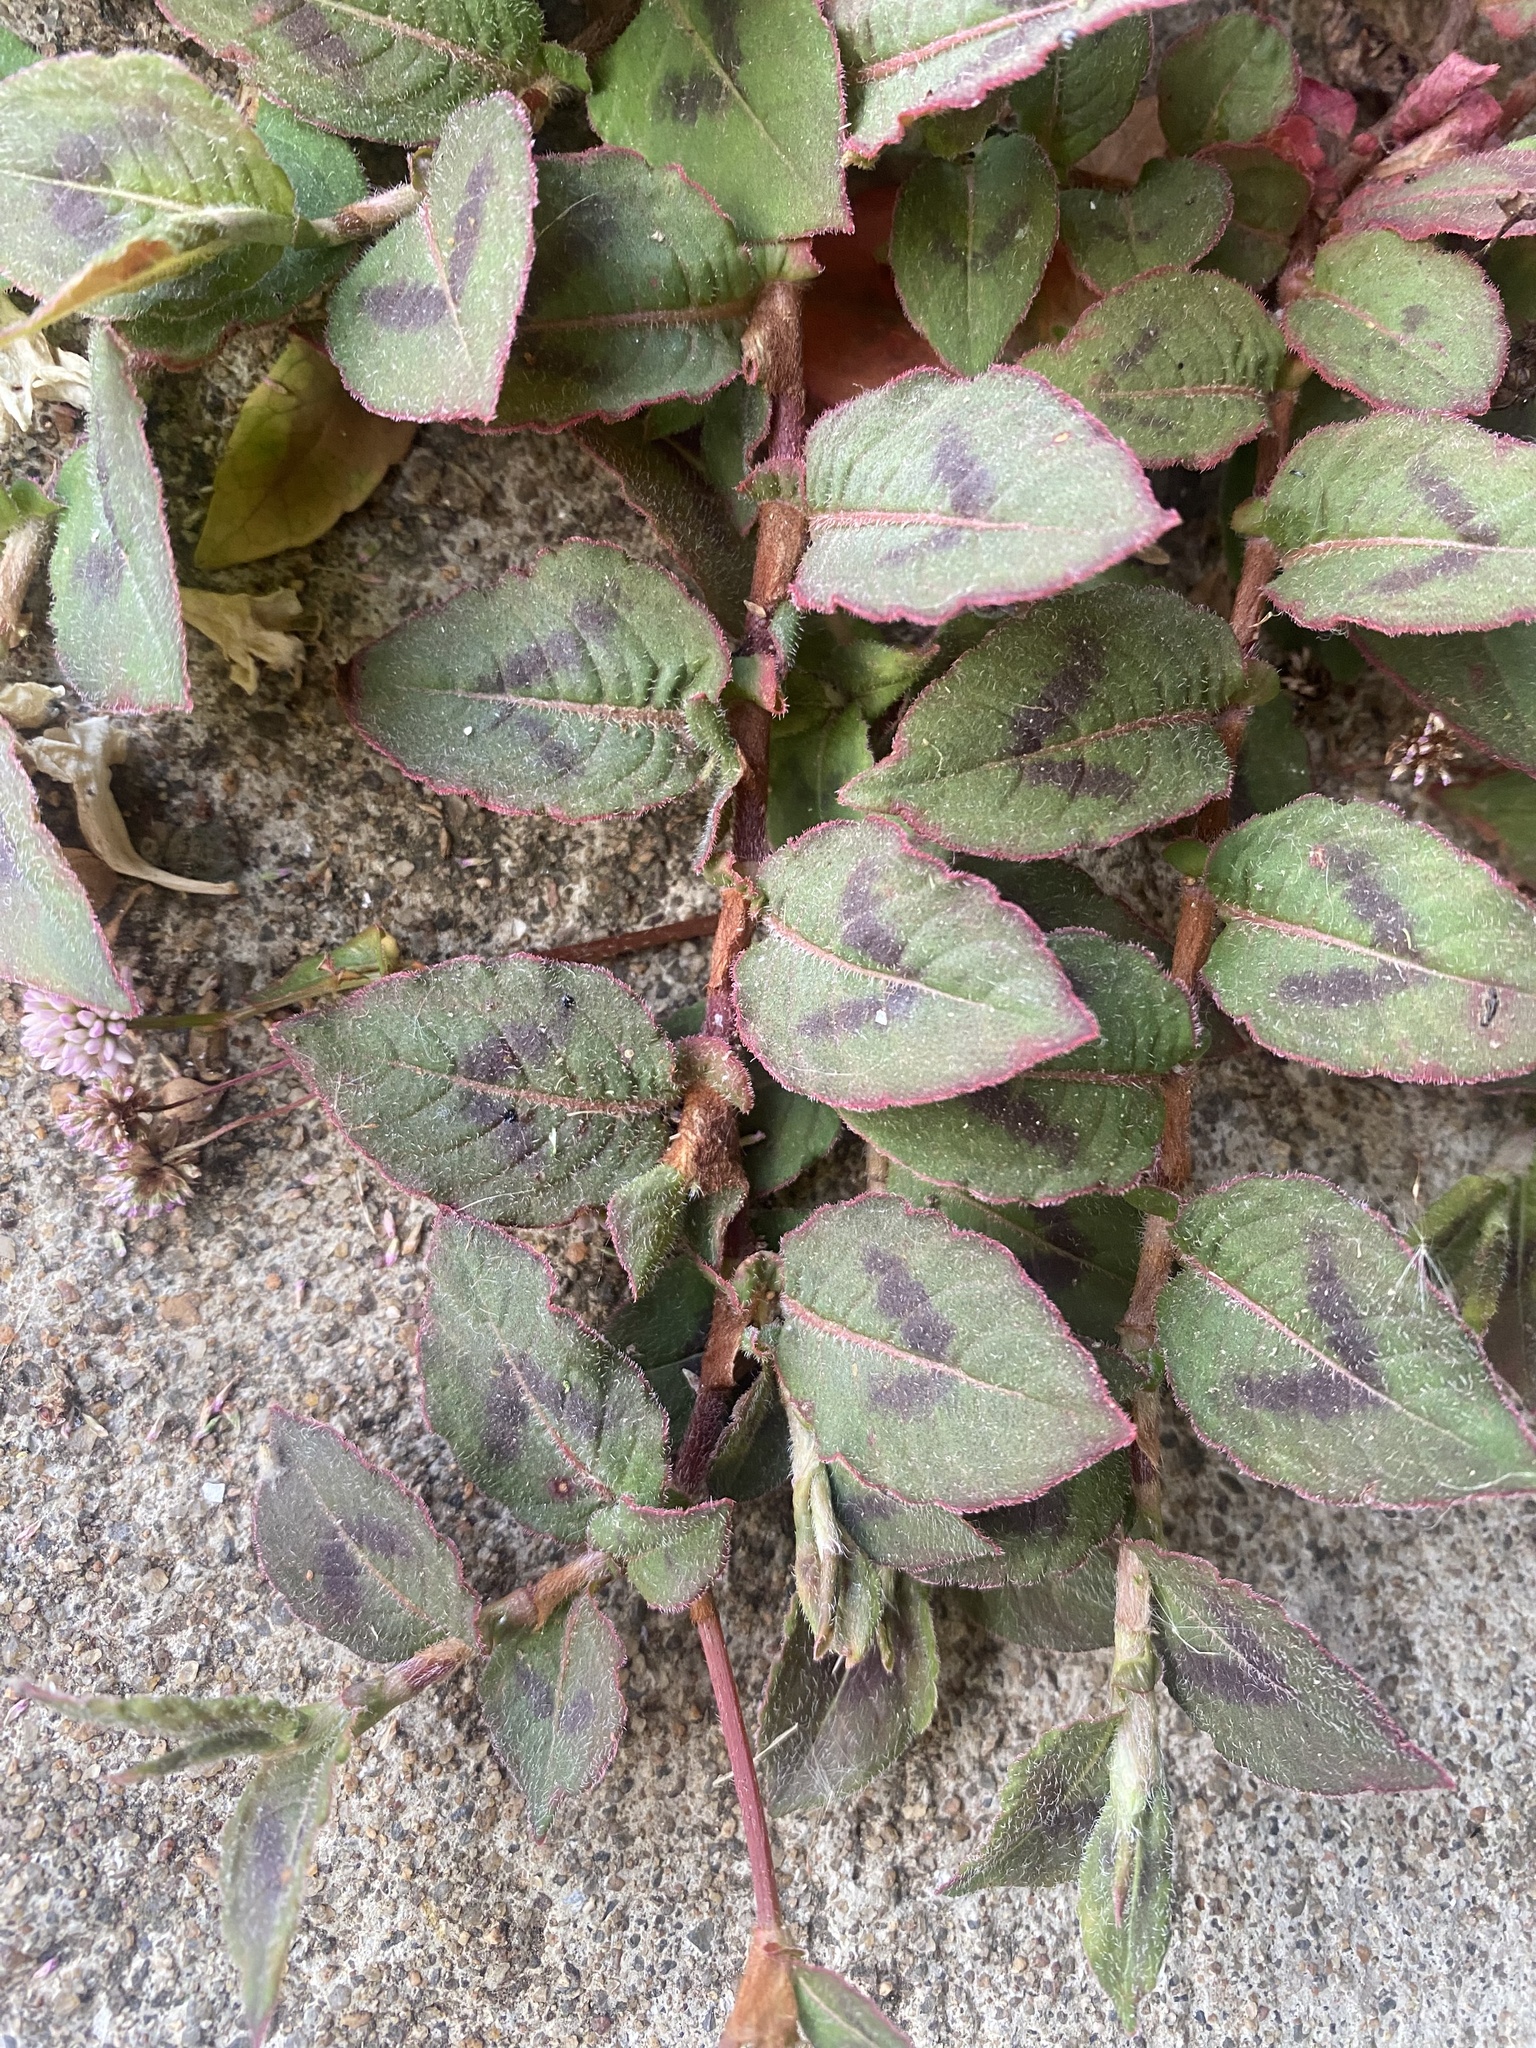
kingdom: Plantae
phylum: Tracheophyta
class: Magnoliopsida
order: Caryophyllales
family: Polygonaceae
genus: Persicaria
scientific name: Persicaria capitata
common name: Pinkhead smartweed
